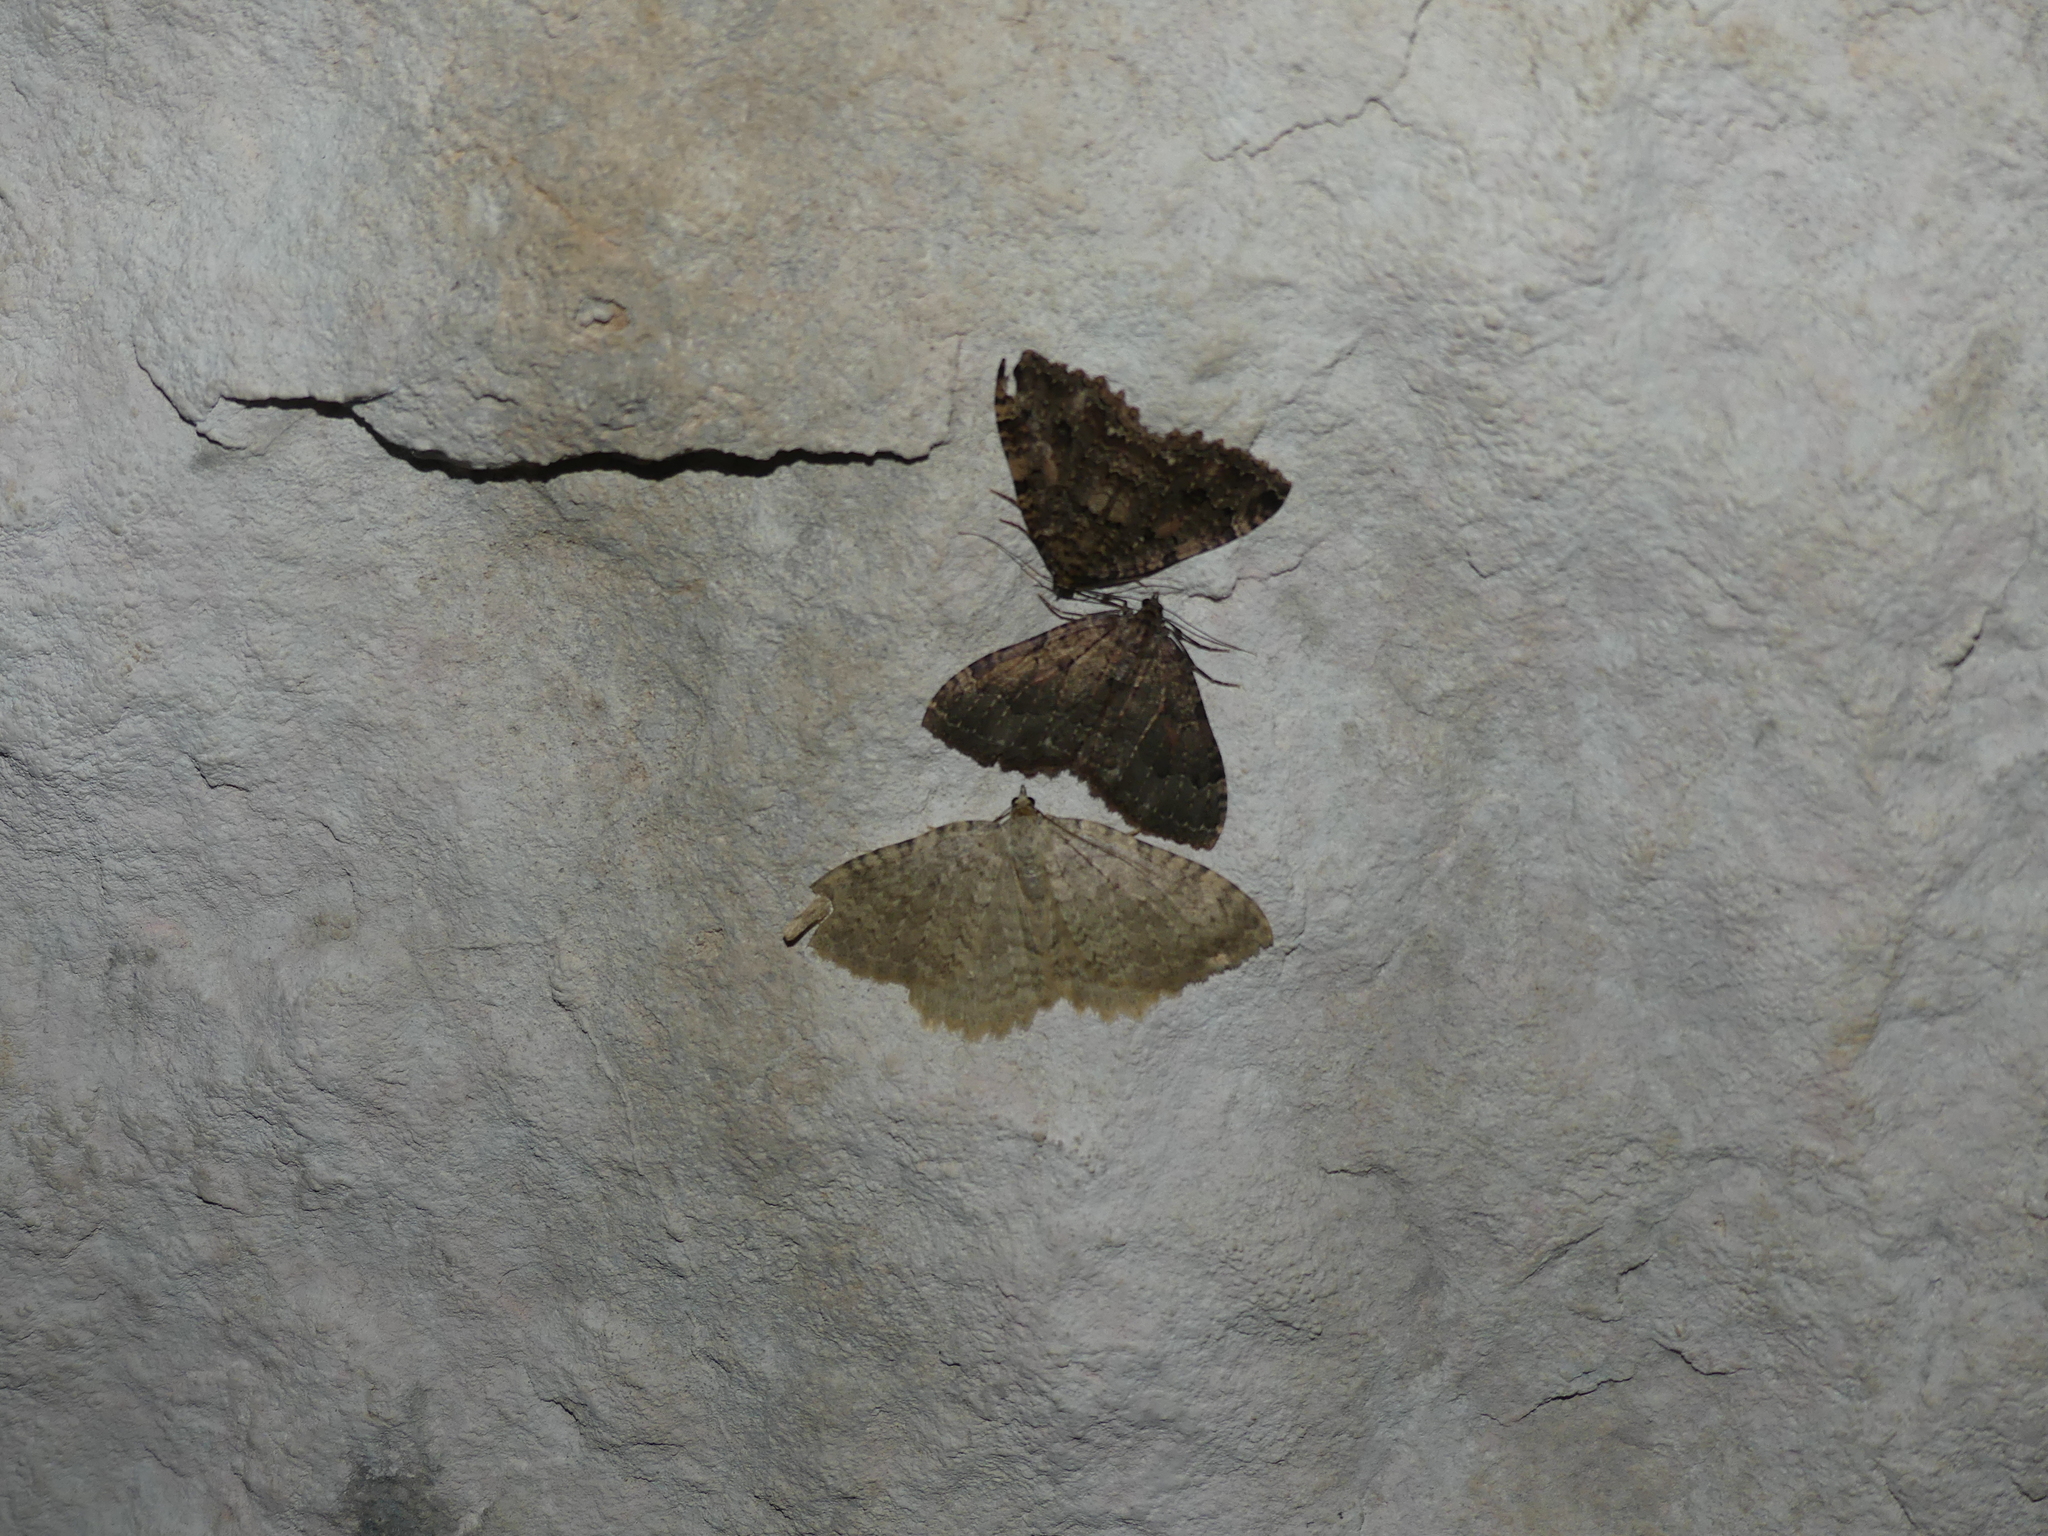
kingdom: Animalia
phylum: Arthropoda
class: Insecta
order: Lepidoptera
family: Geometridae
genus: Triphosa
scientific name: Triphosa sabaudiata
